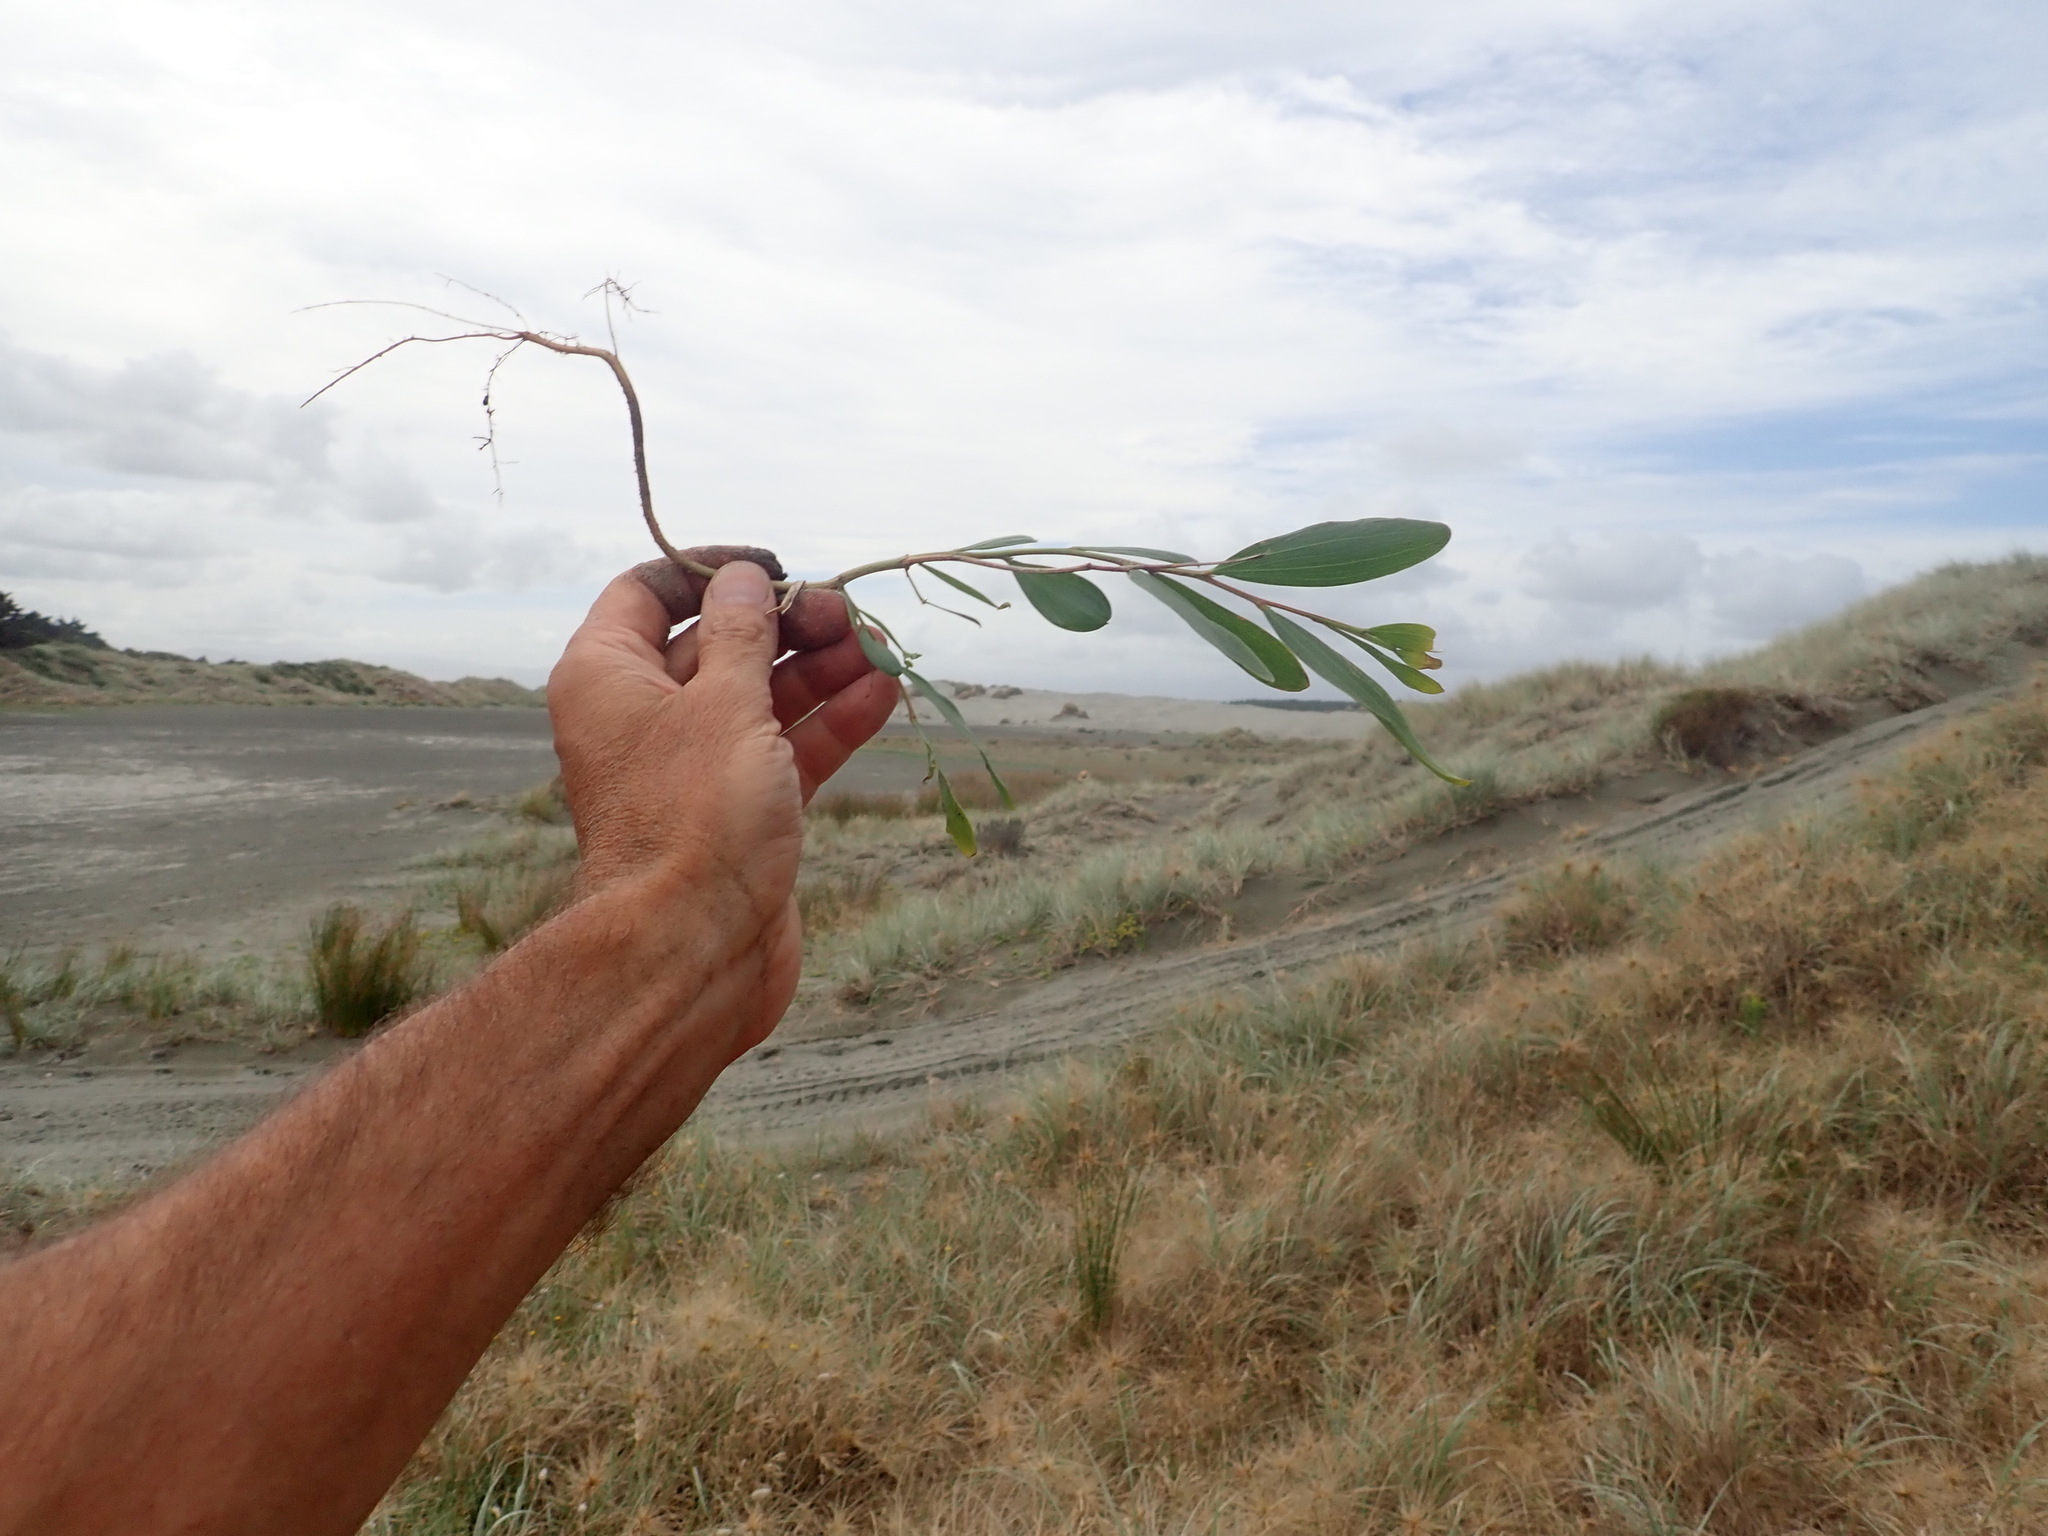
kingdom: Plantae
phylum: Tracheophyta
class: Magnoliopsida
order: Fabales
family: Fabaceae
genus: Acacia
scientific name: Acacia longifolia
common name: Sydney golden wattle
